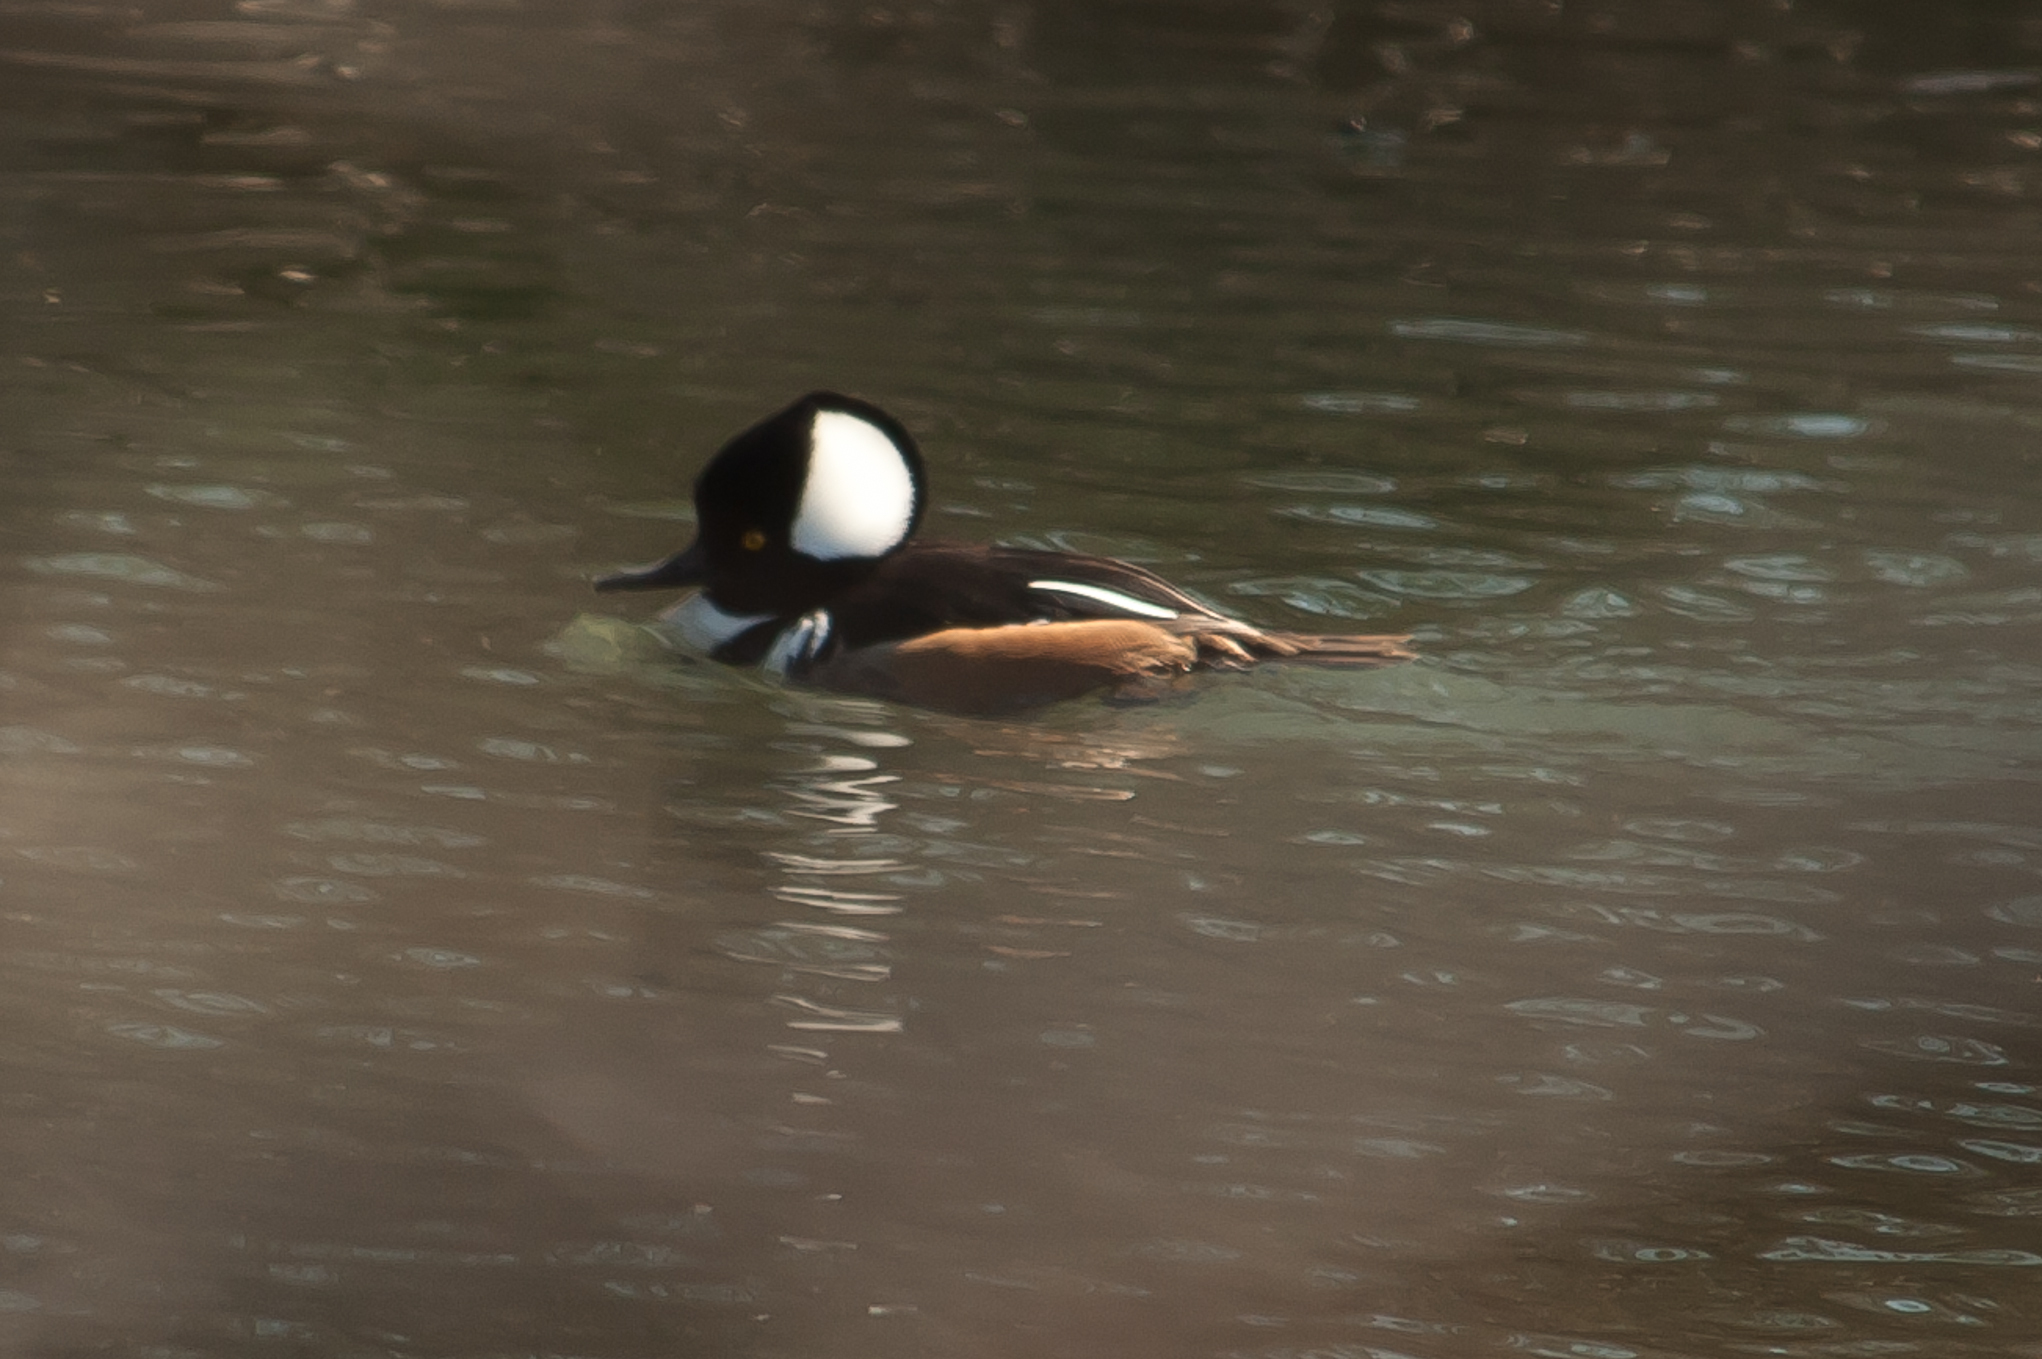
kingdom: Animalia
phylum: Chordata
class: Aves
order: Anseriformes
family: Anatidae
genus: Lophodytes
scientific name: Lophodytes cucullatus
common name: Hooded merganser
